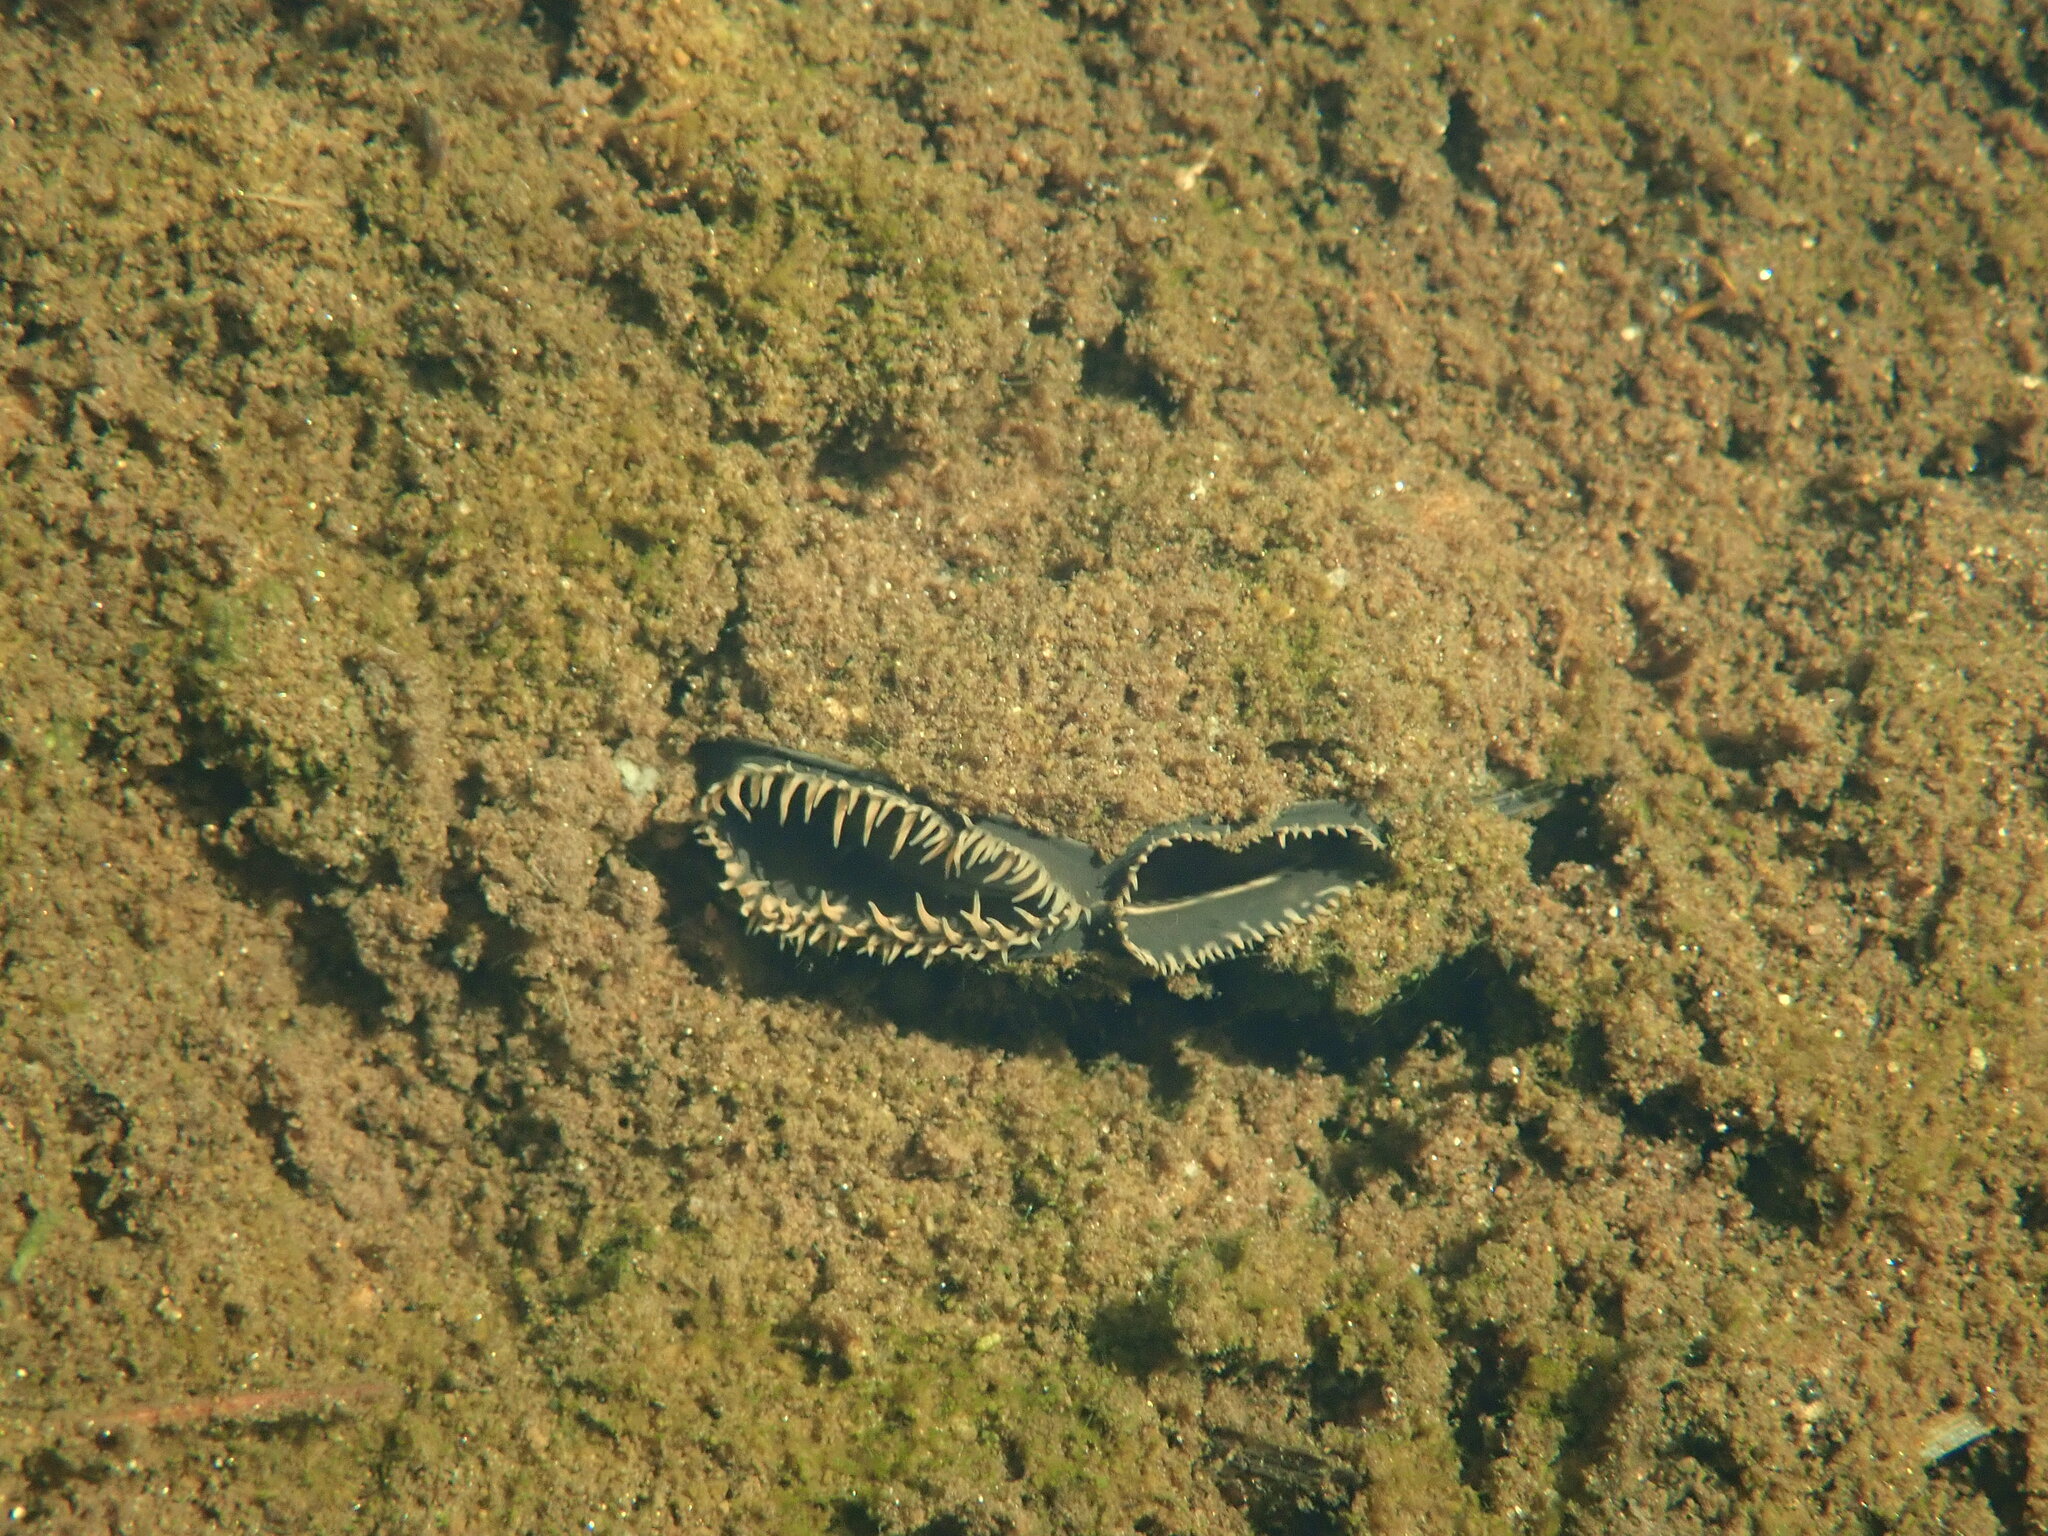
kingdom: Animalia
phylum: Mollusca
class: Bivalvia
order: Unionida
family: Unionidae
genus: Elliptio
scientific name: Elliptio complanata
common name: Eastern elliptio
